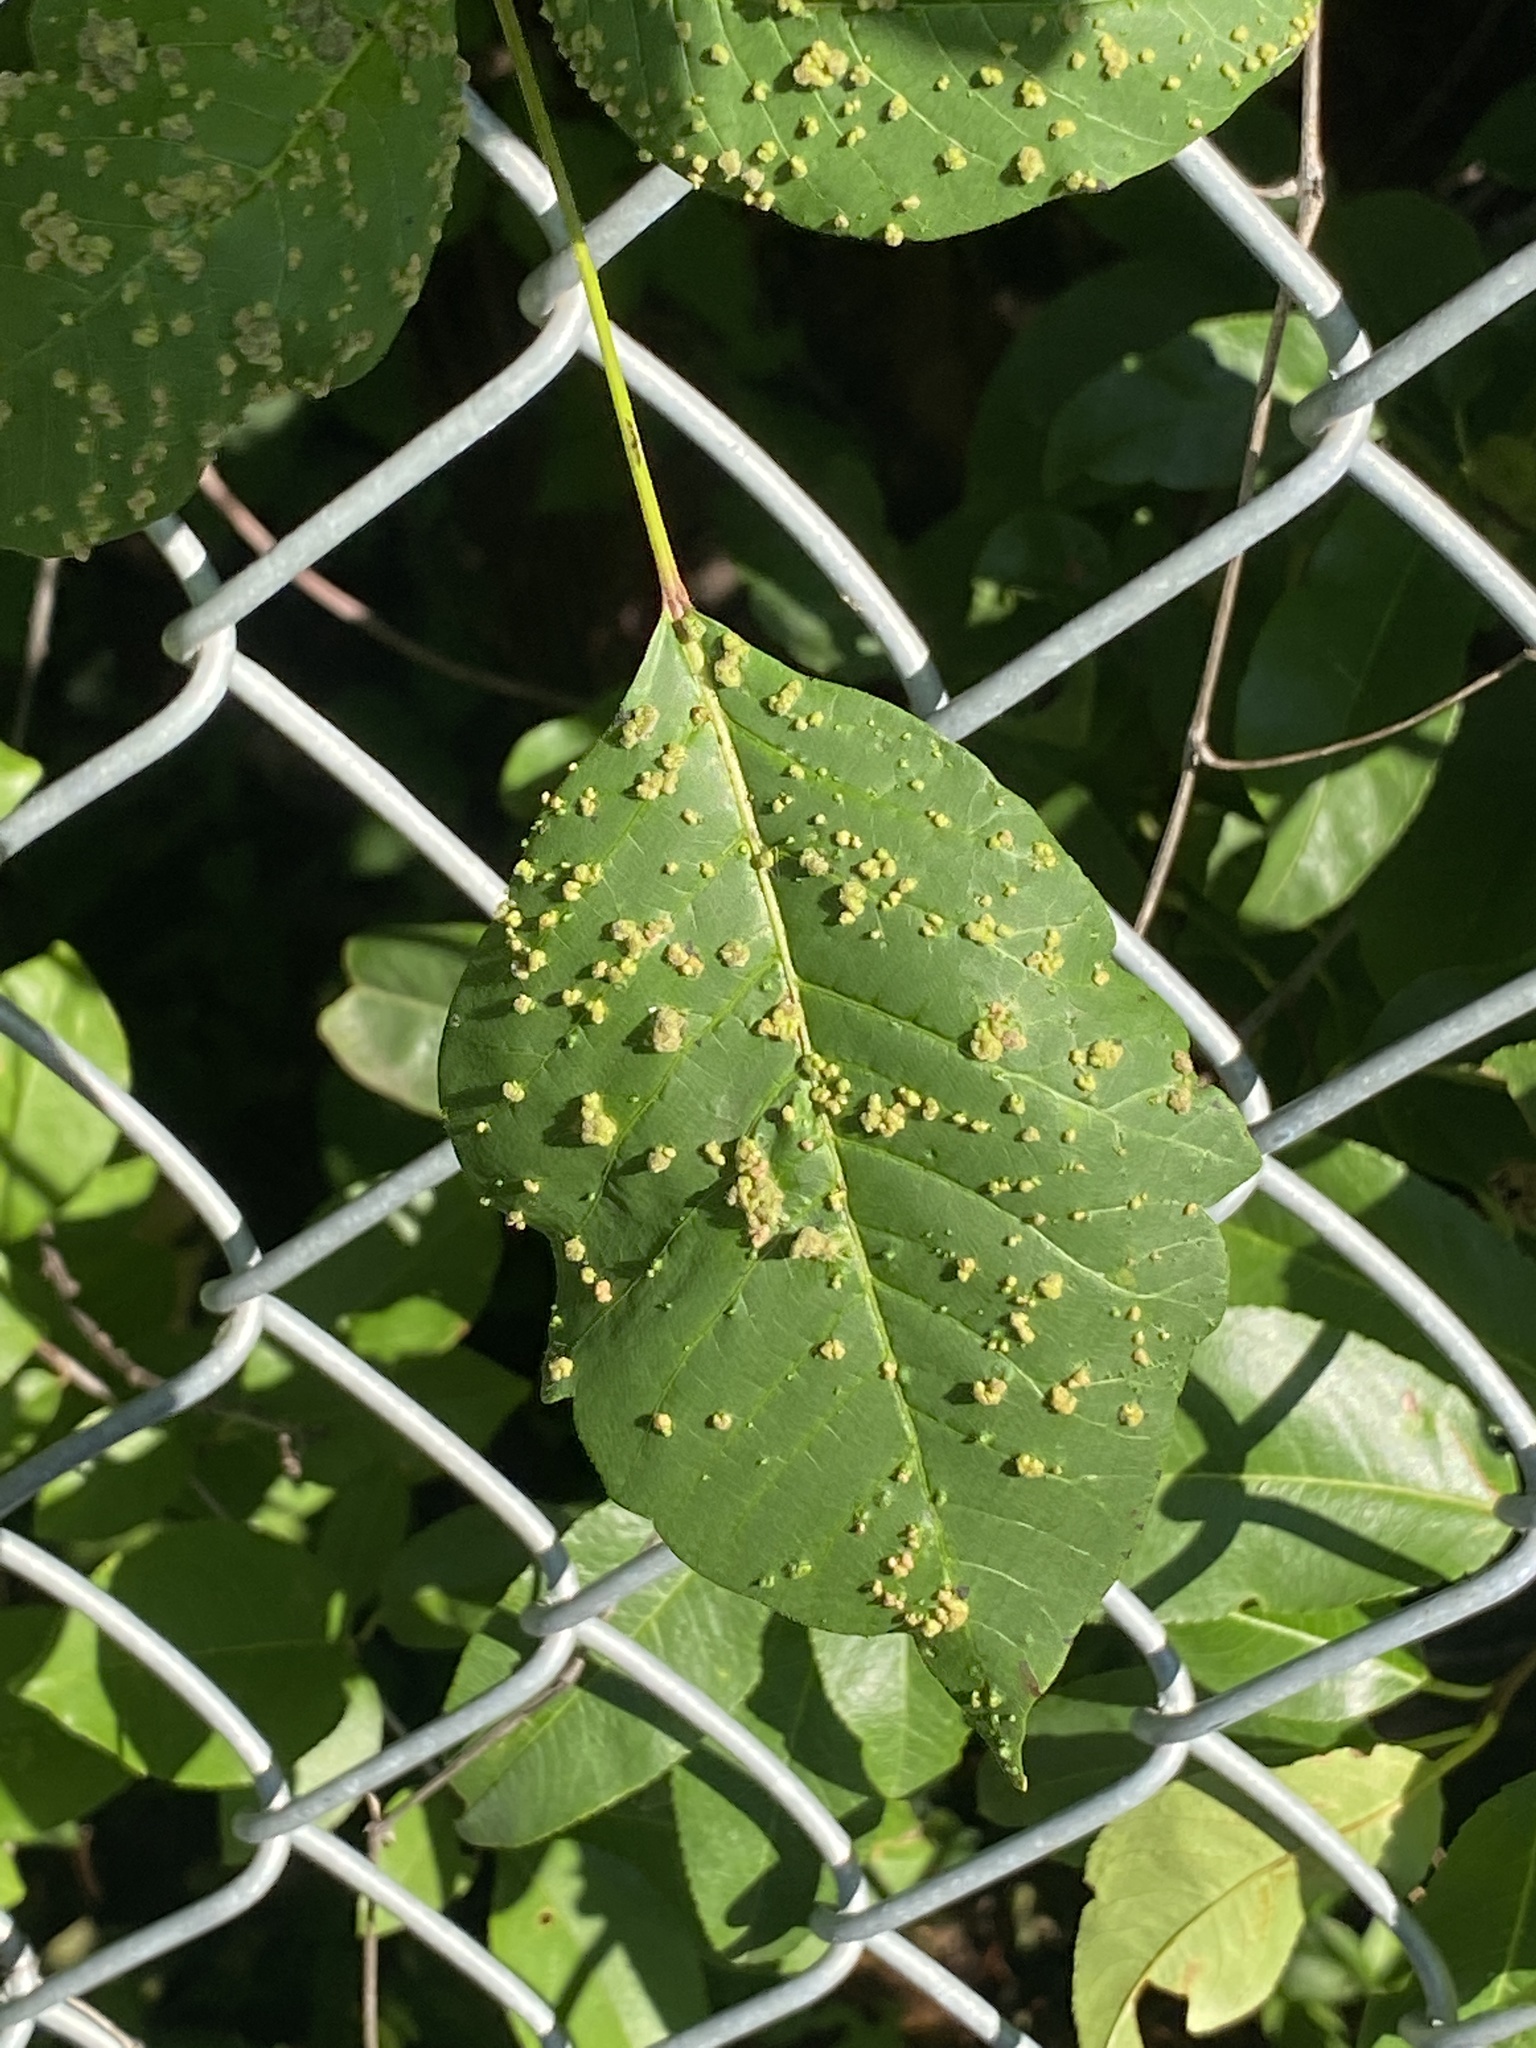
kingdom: Animalia
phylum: Arthropoda
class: Arachnida
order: Trombidiformes
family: Eriophyidae
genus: Aculops
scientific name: Aculops
